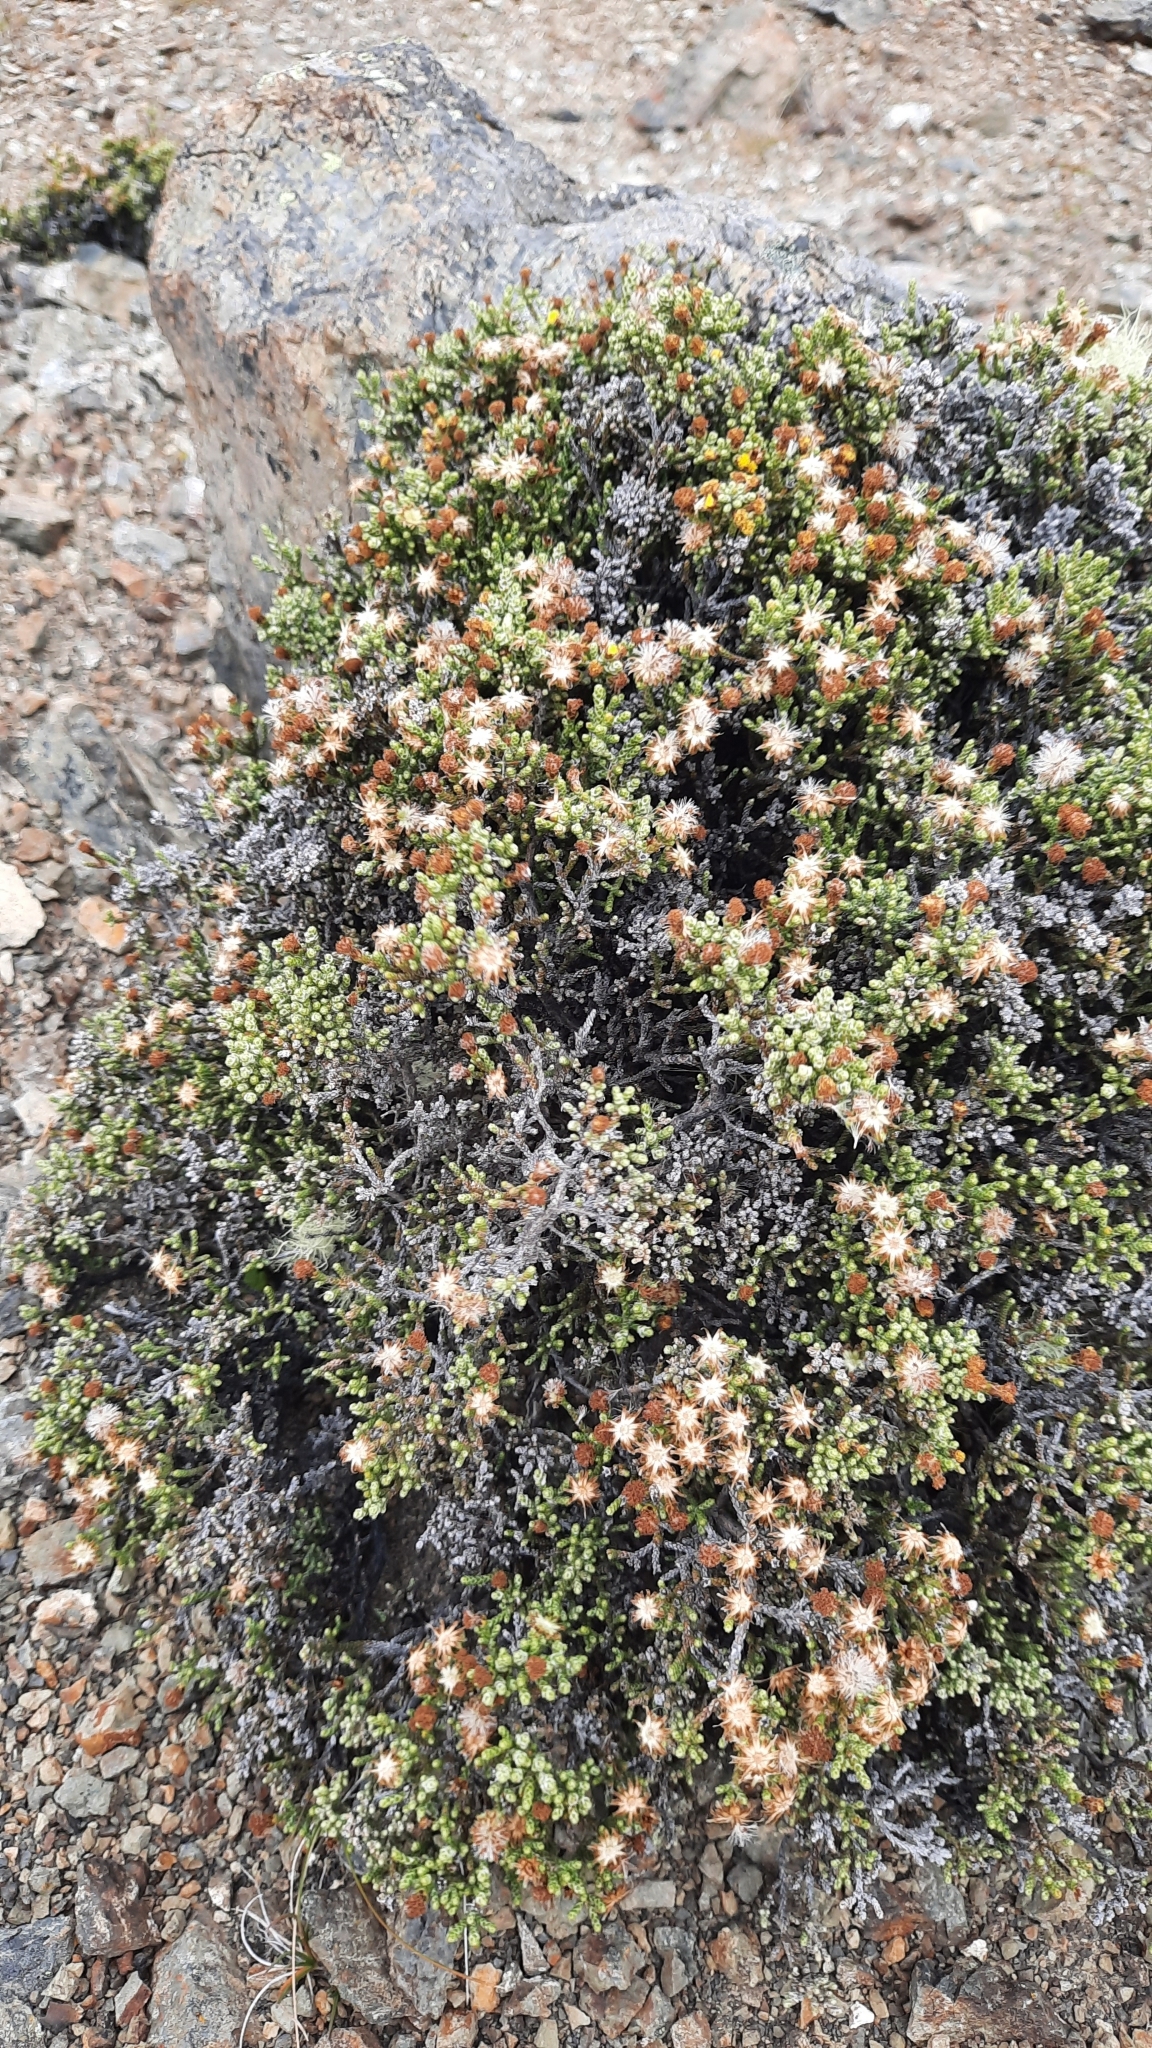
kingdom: Plantae
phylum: Tracheophyta
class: Magnoliopsida
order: Asterales
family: Asteraceae
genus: Ozothamnus
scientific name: Ozothamnus parvifolius
